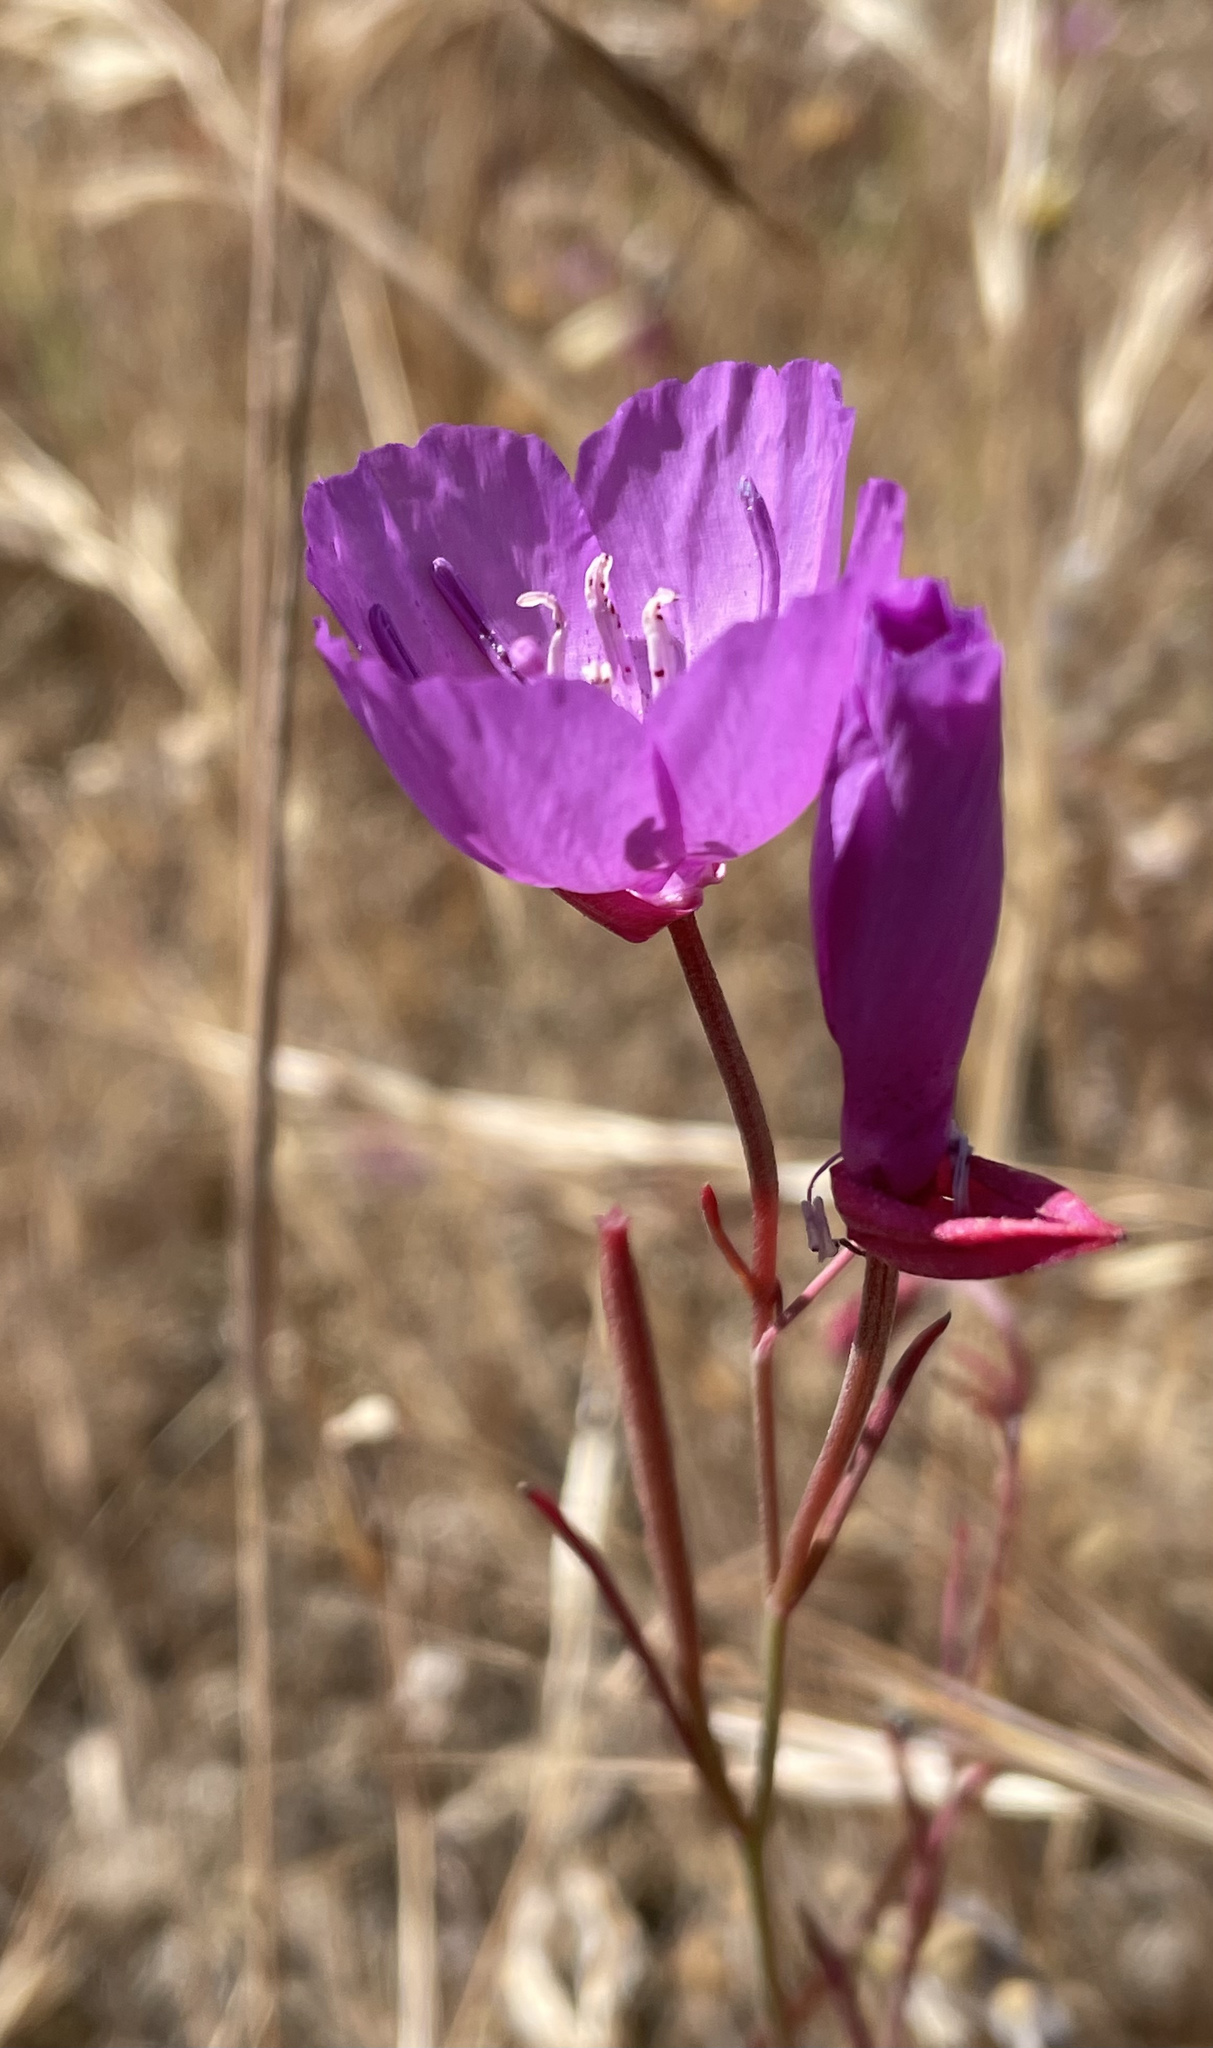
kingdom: Plantae
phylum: Tracheophyta
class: Magnoliopsida
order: Myrtales
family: Onagraceae
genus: Clarkia
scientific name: Clarkia lewisii
